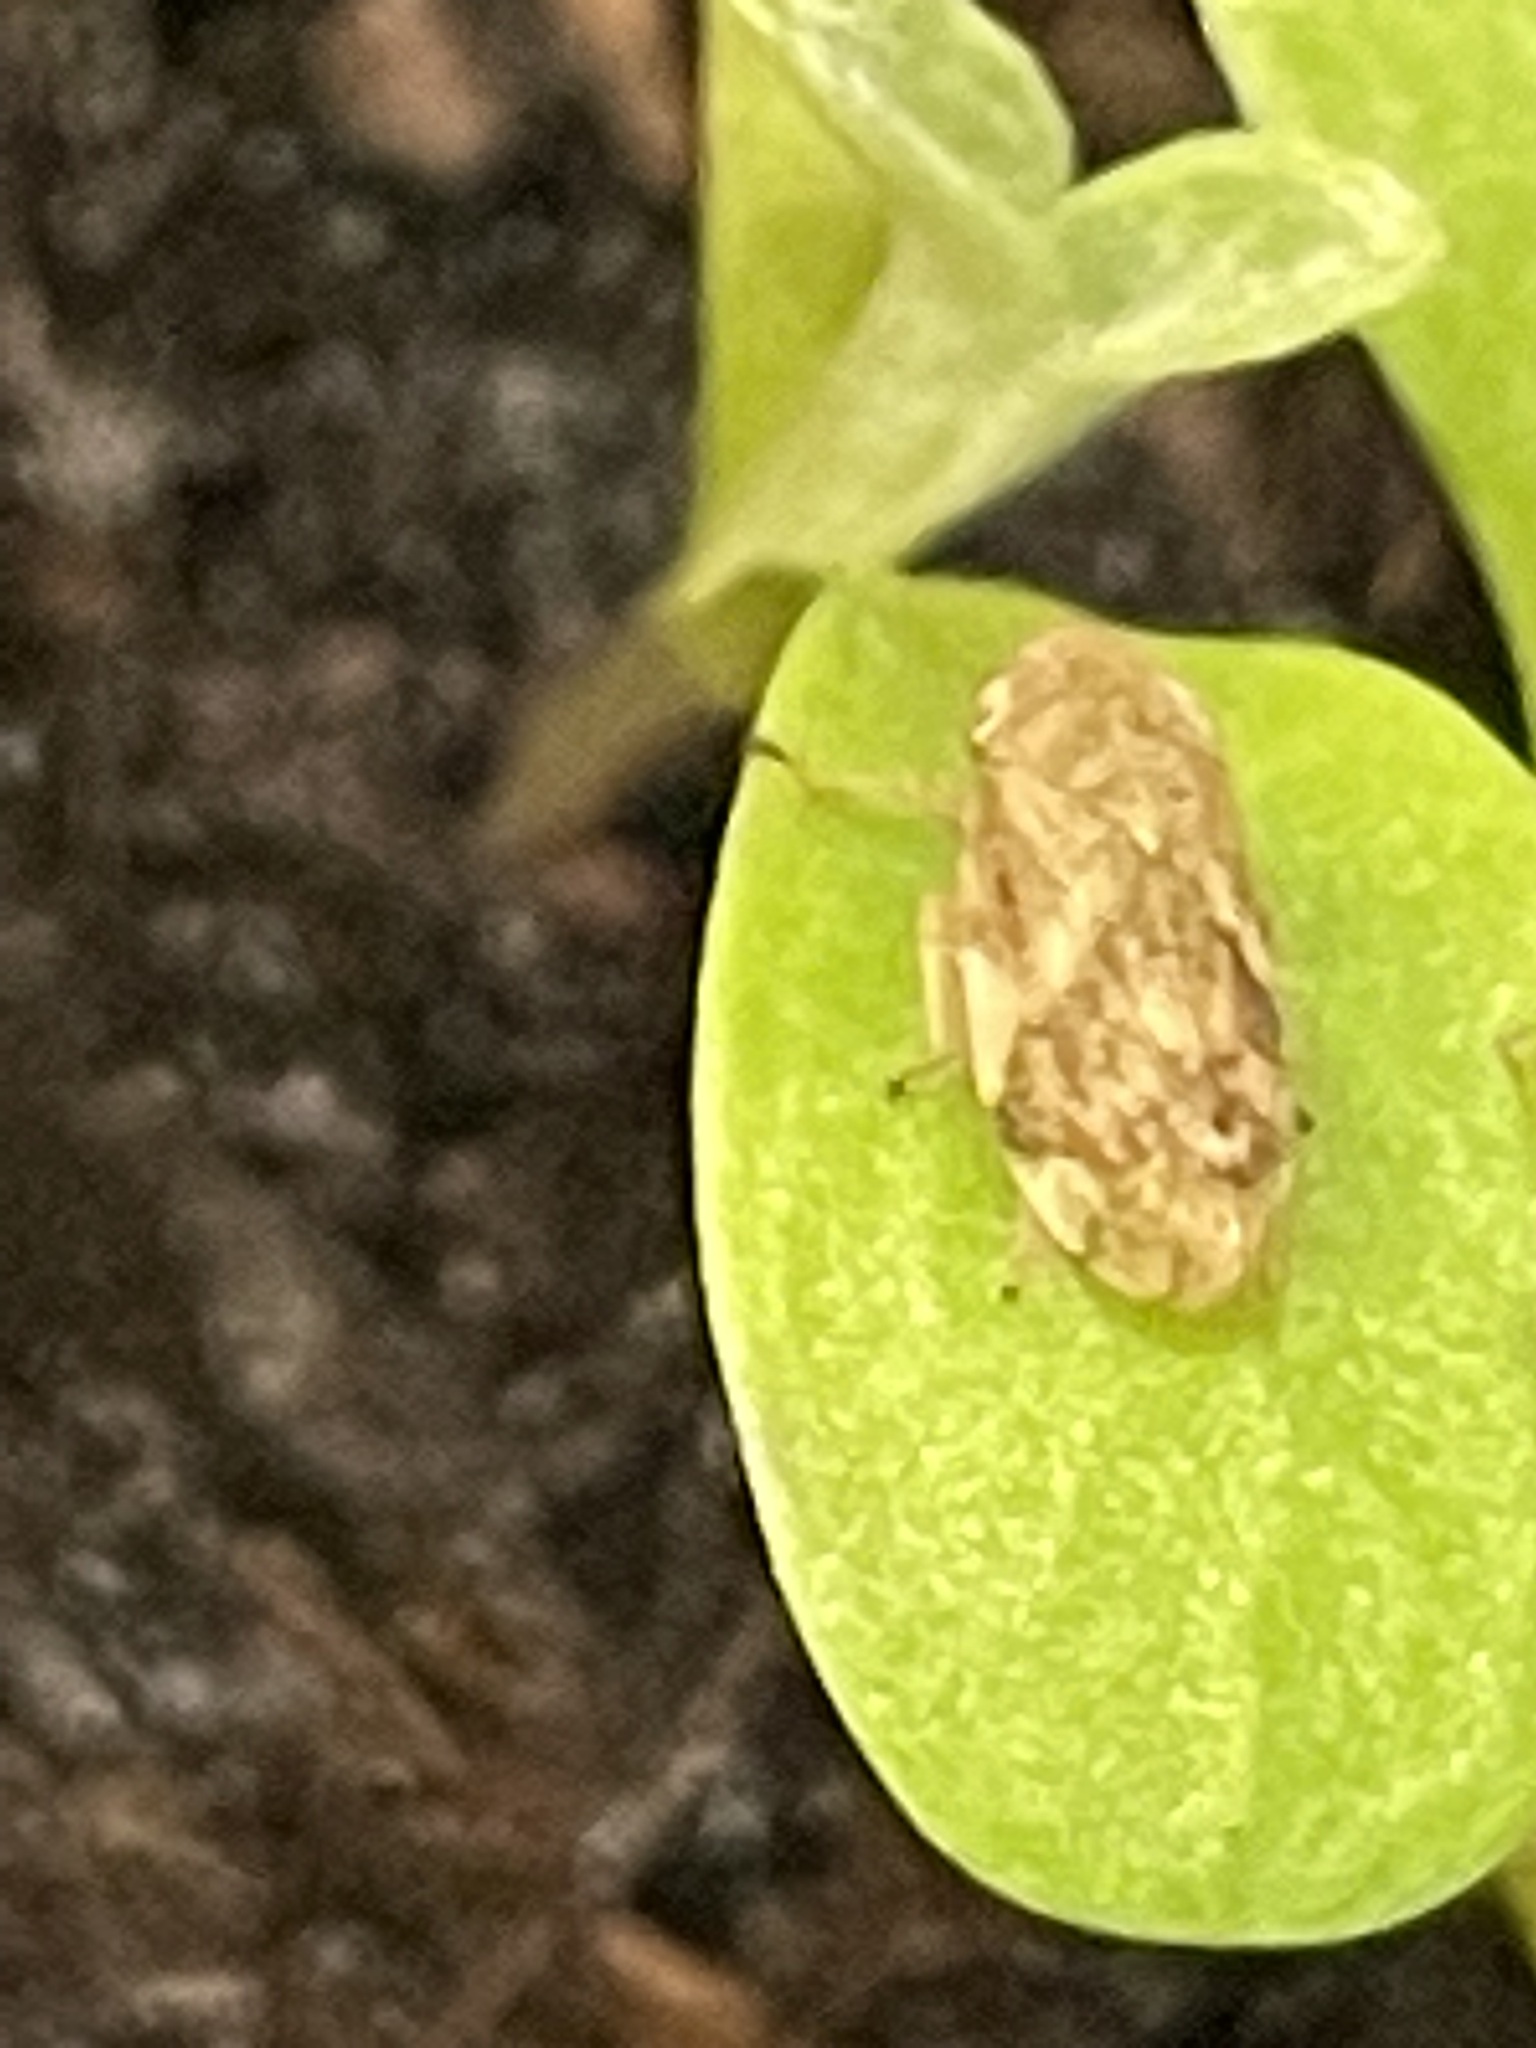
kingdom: Animalia
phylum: Arthropoda
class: Insecta
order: Hemiptera
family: Aphrophoridae
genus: Philaenus
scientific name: Philaenus spumarius
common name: Meadow spittlebug
